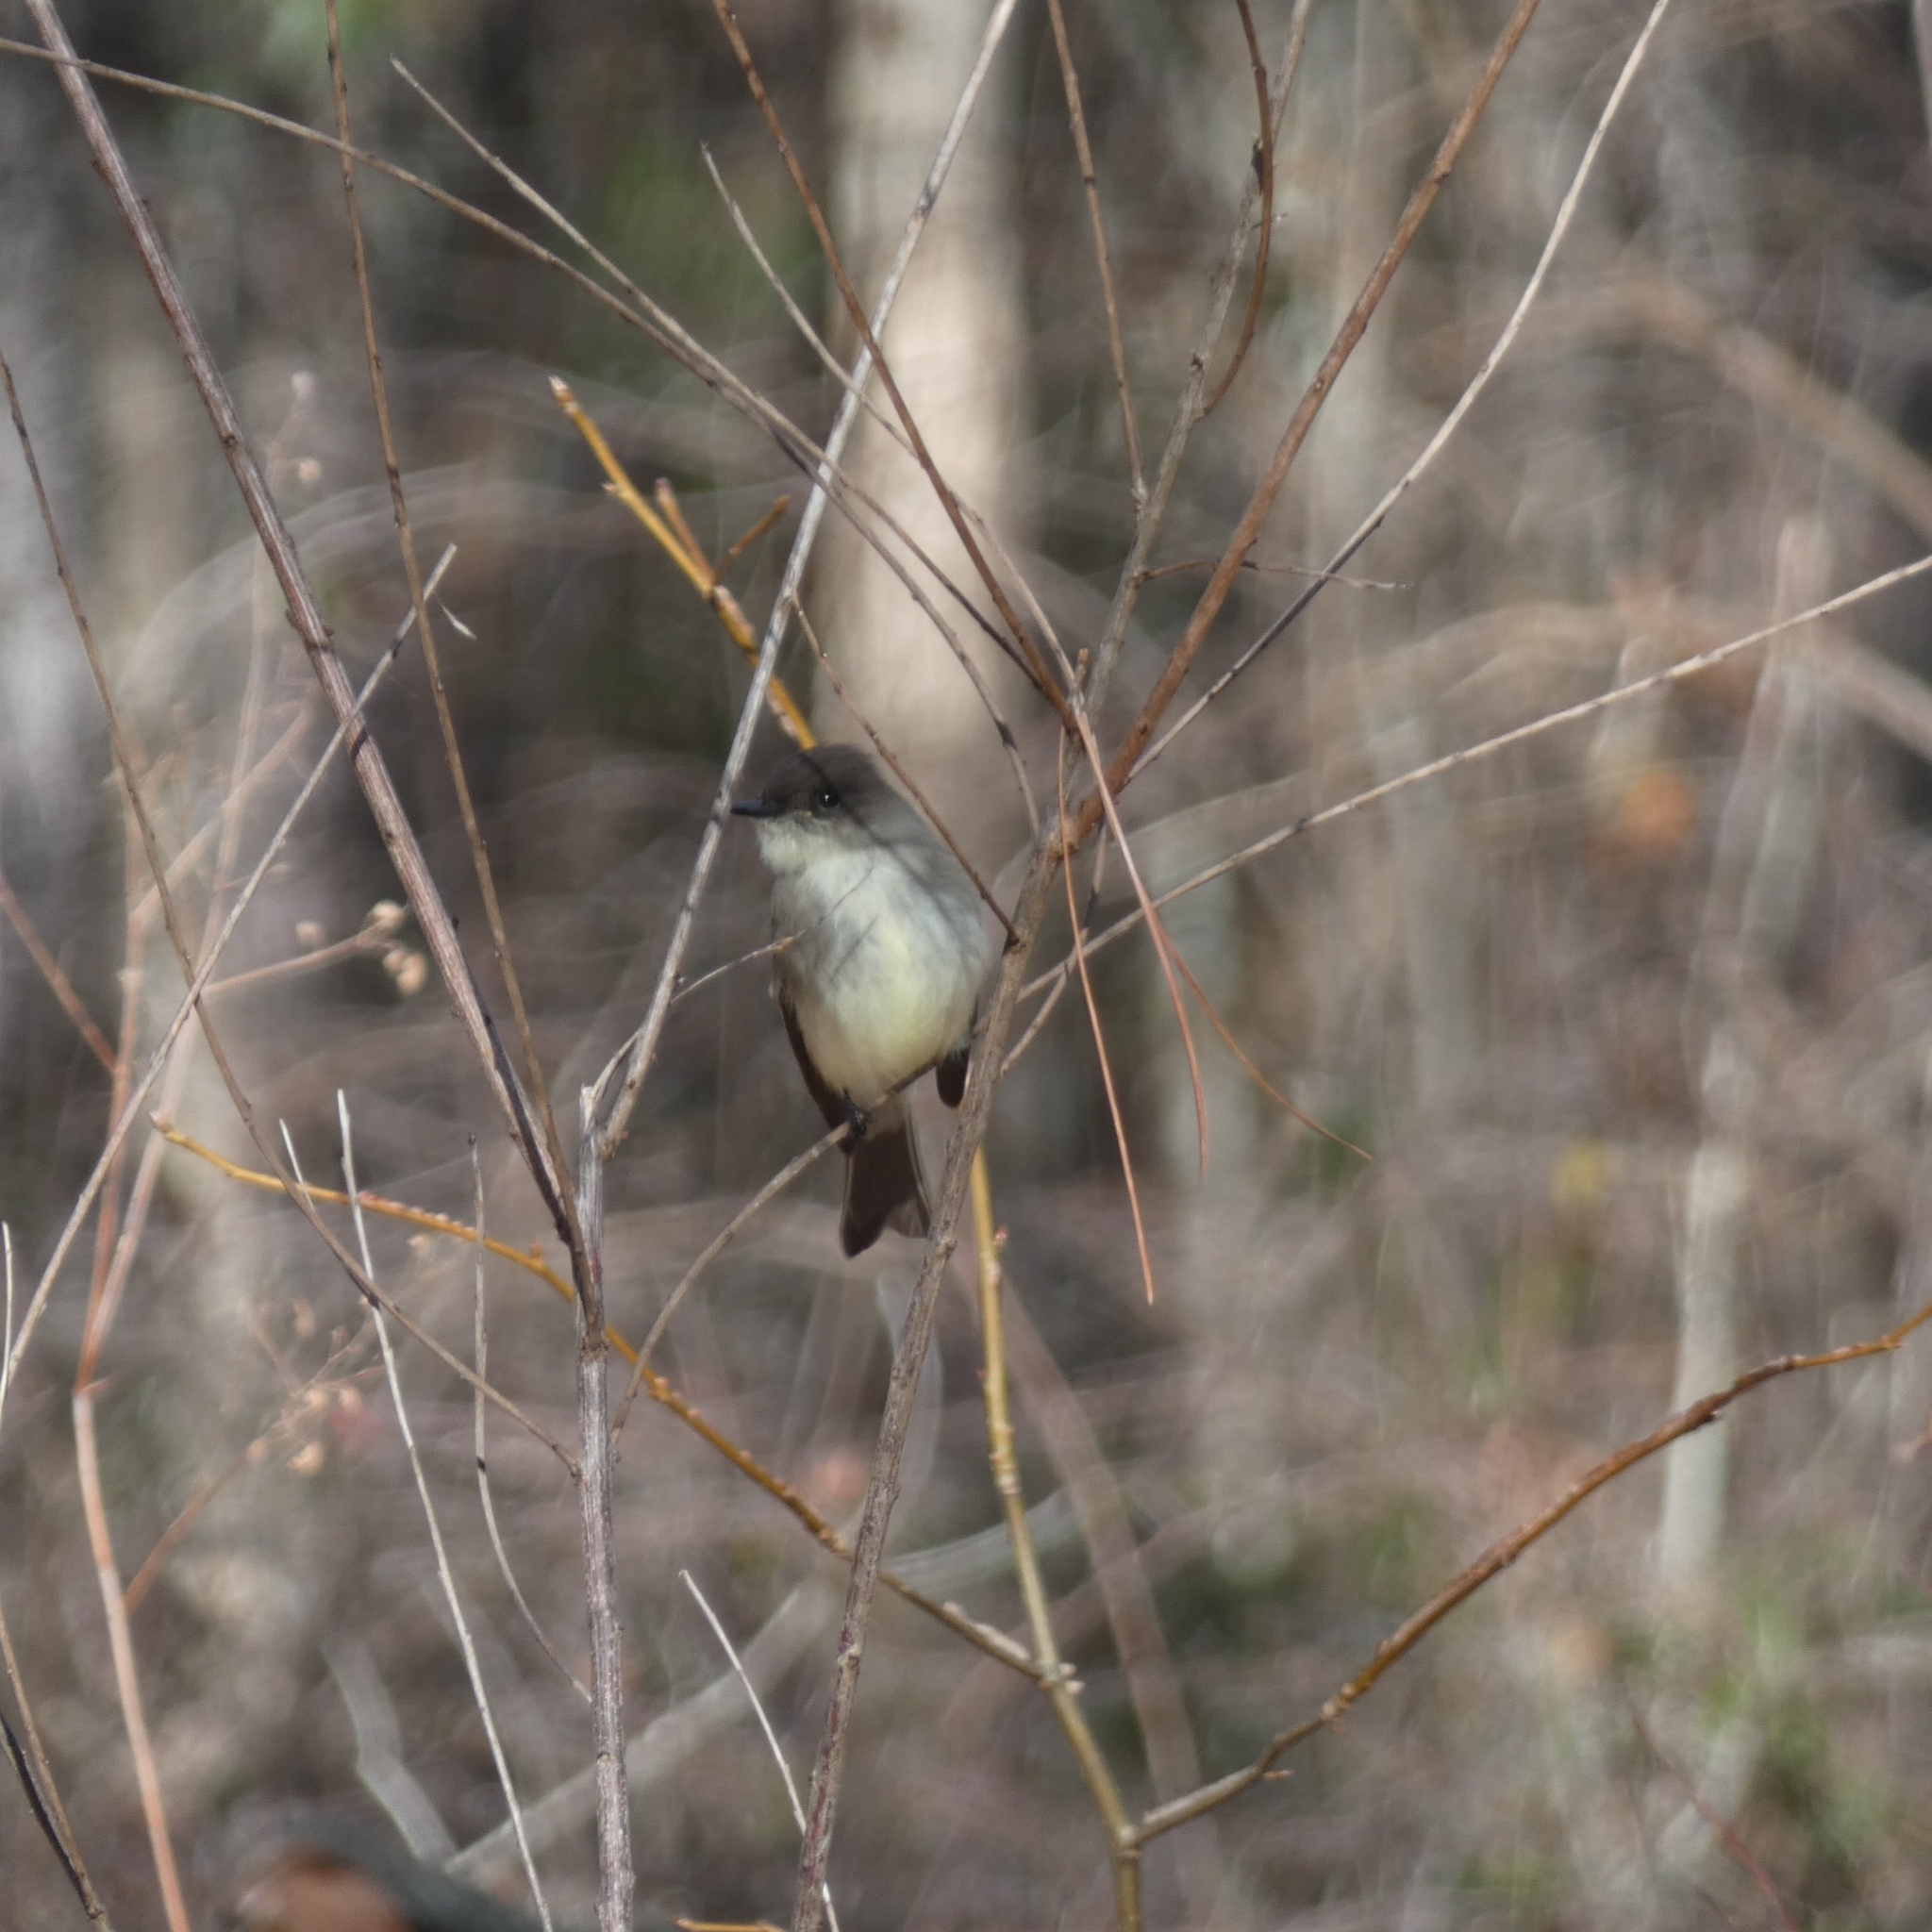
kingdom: Animalia
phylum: Chordata
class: Aves
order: Passeriformes
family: Tyrannidae
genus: Sayornis
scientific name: Sayornis phoebe
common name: Eastern phoebe
